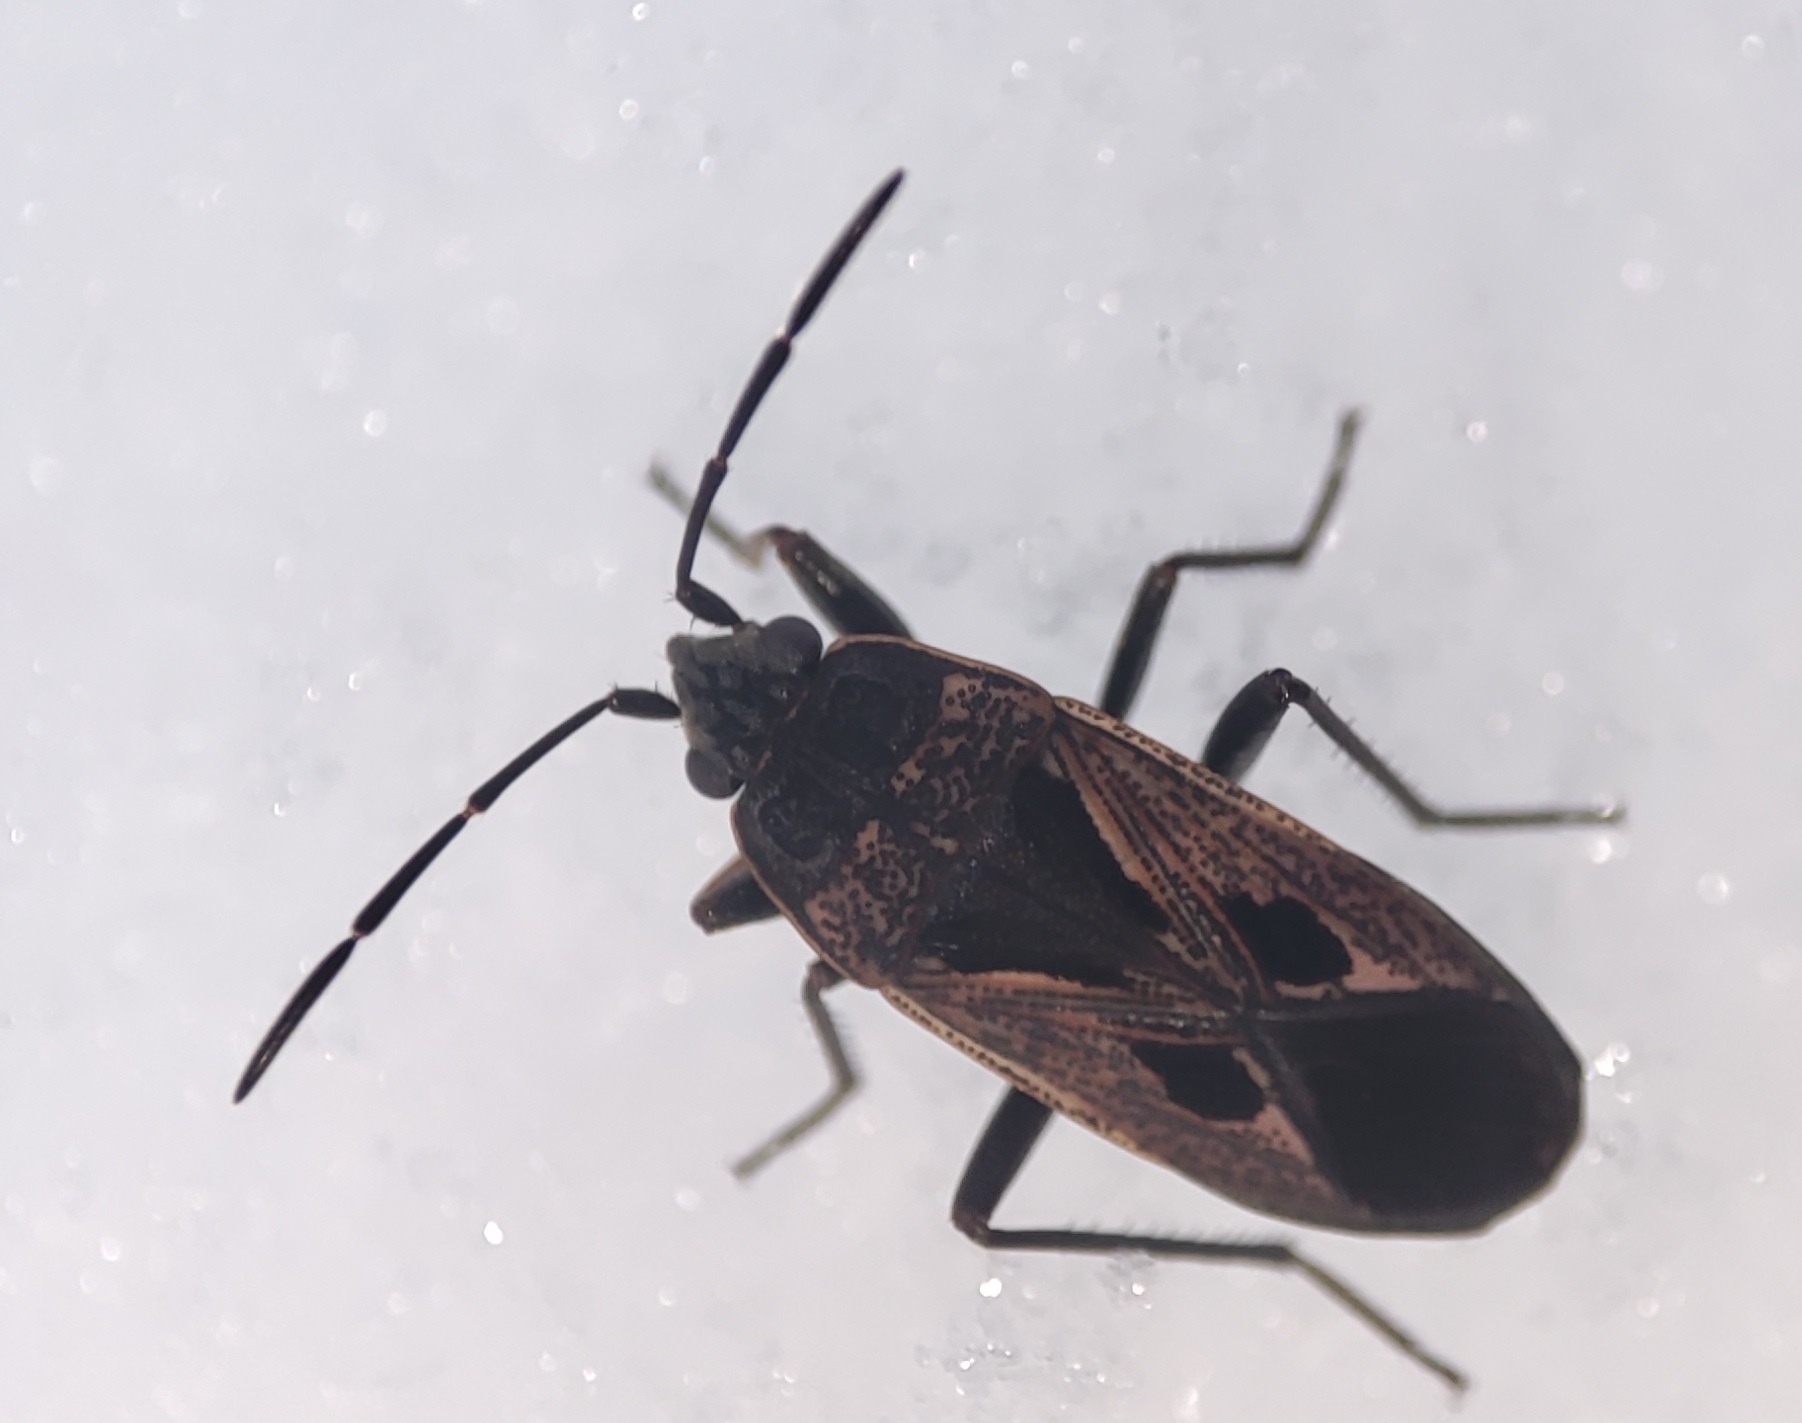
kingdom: Animalia
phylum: Arthropoda
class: Insecta
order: Hemiptera
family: Rhyparochromidae
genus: Rhyparochromus
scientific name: Rhyparochromus pini
